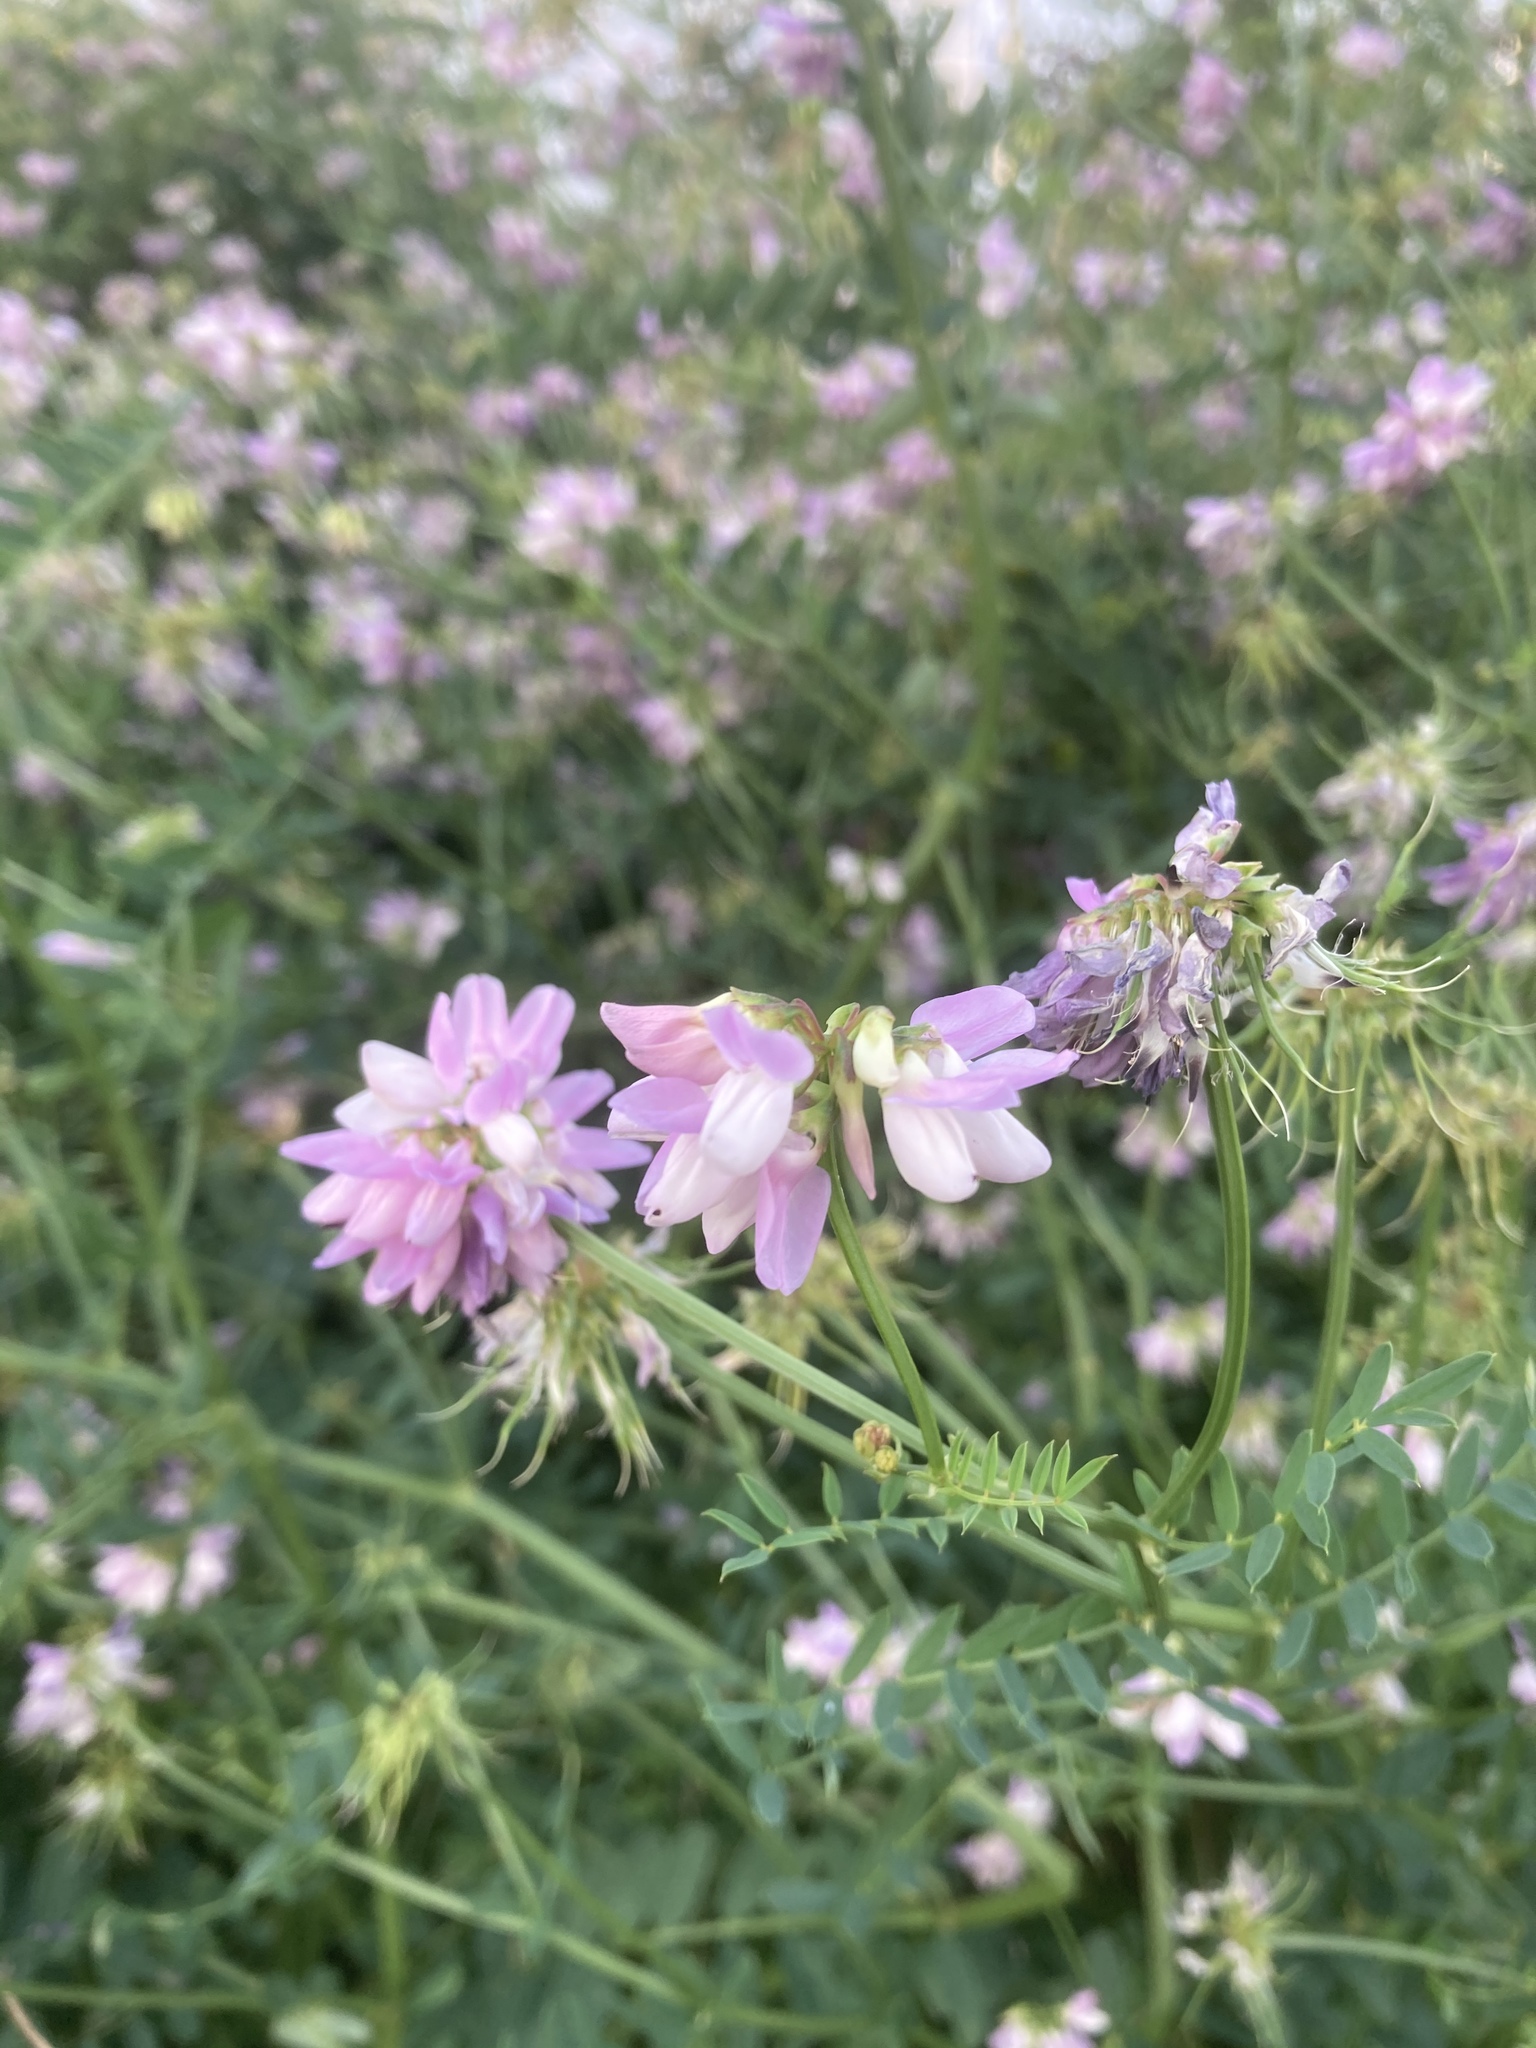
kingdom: Plantae
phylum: Tracheophyta
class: Magnoliopsida
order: Fabales
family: Fabaceae
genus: Coronilla
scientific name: Coronilla varia
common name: Crownvetch
